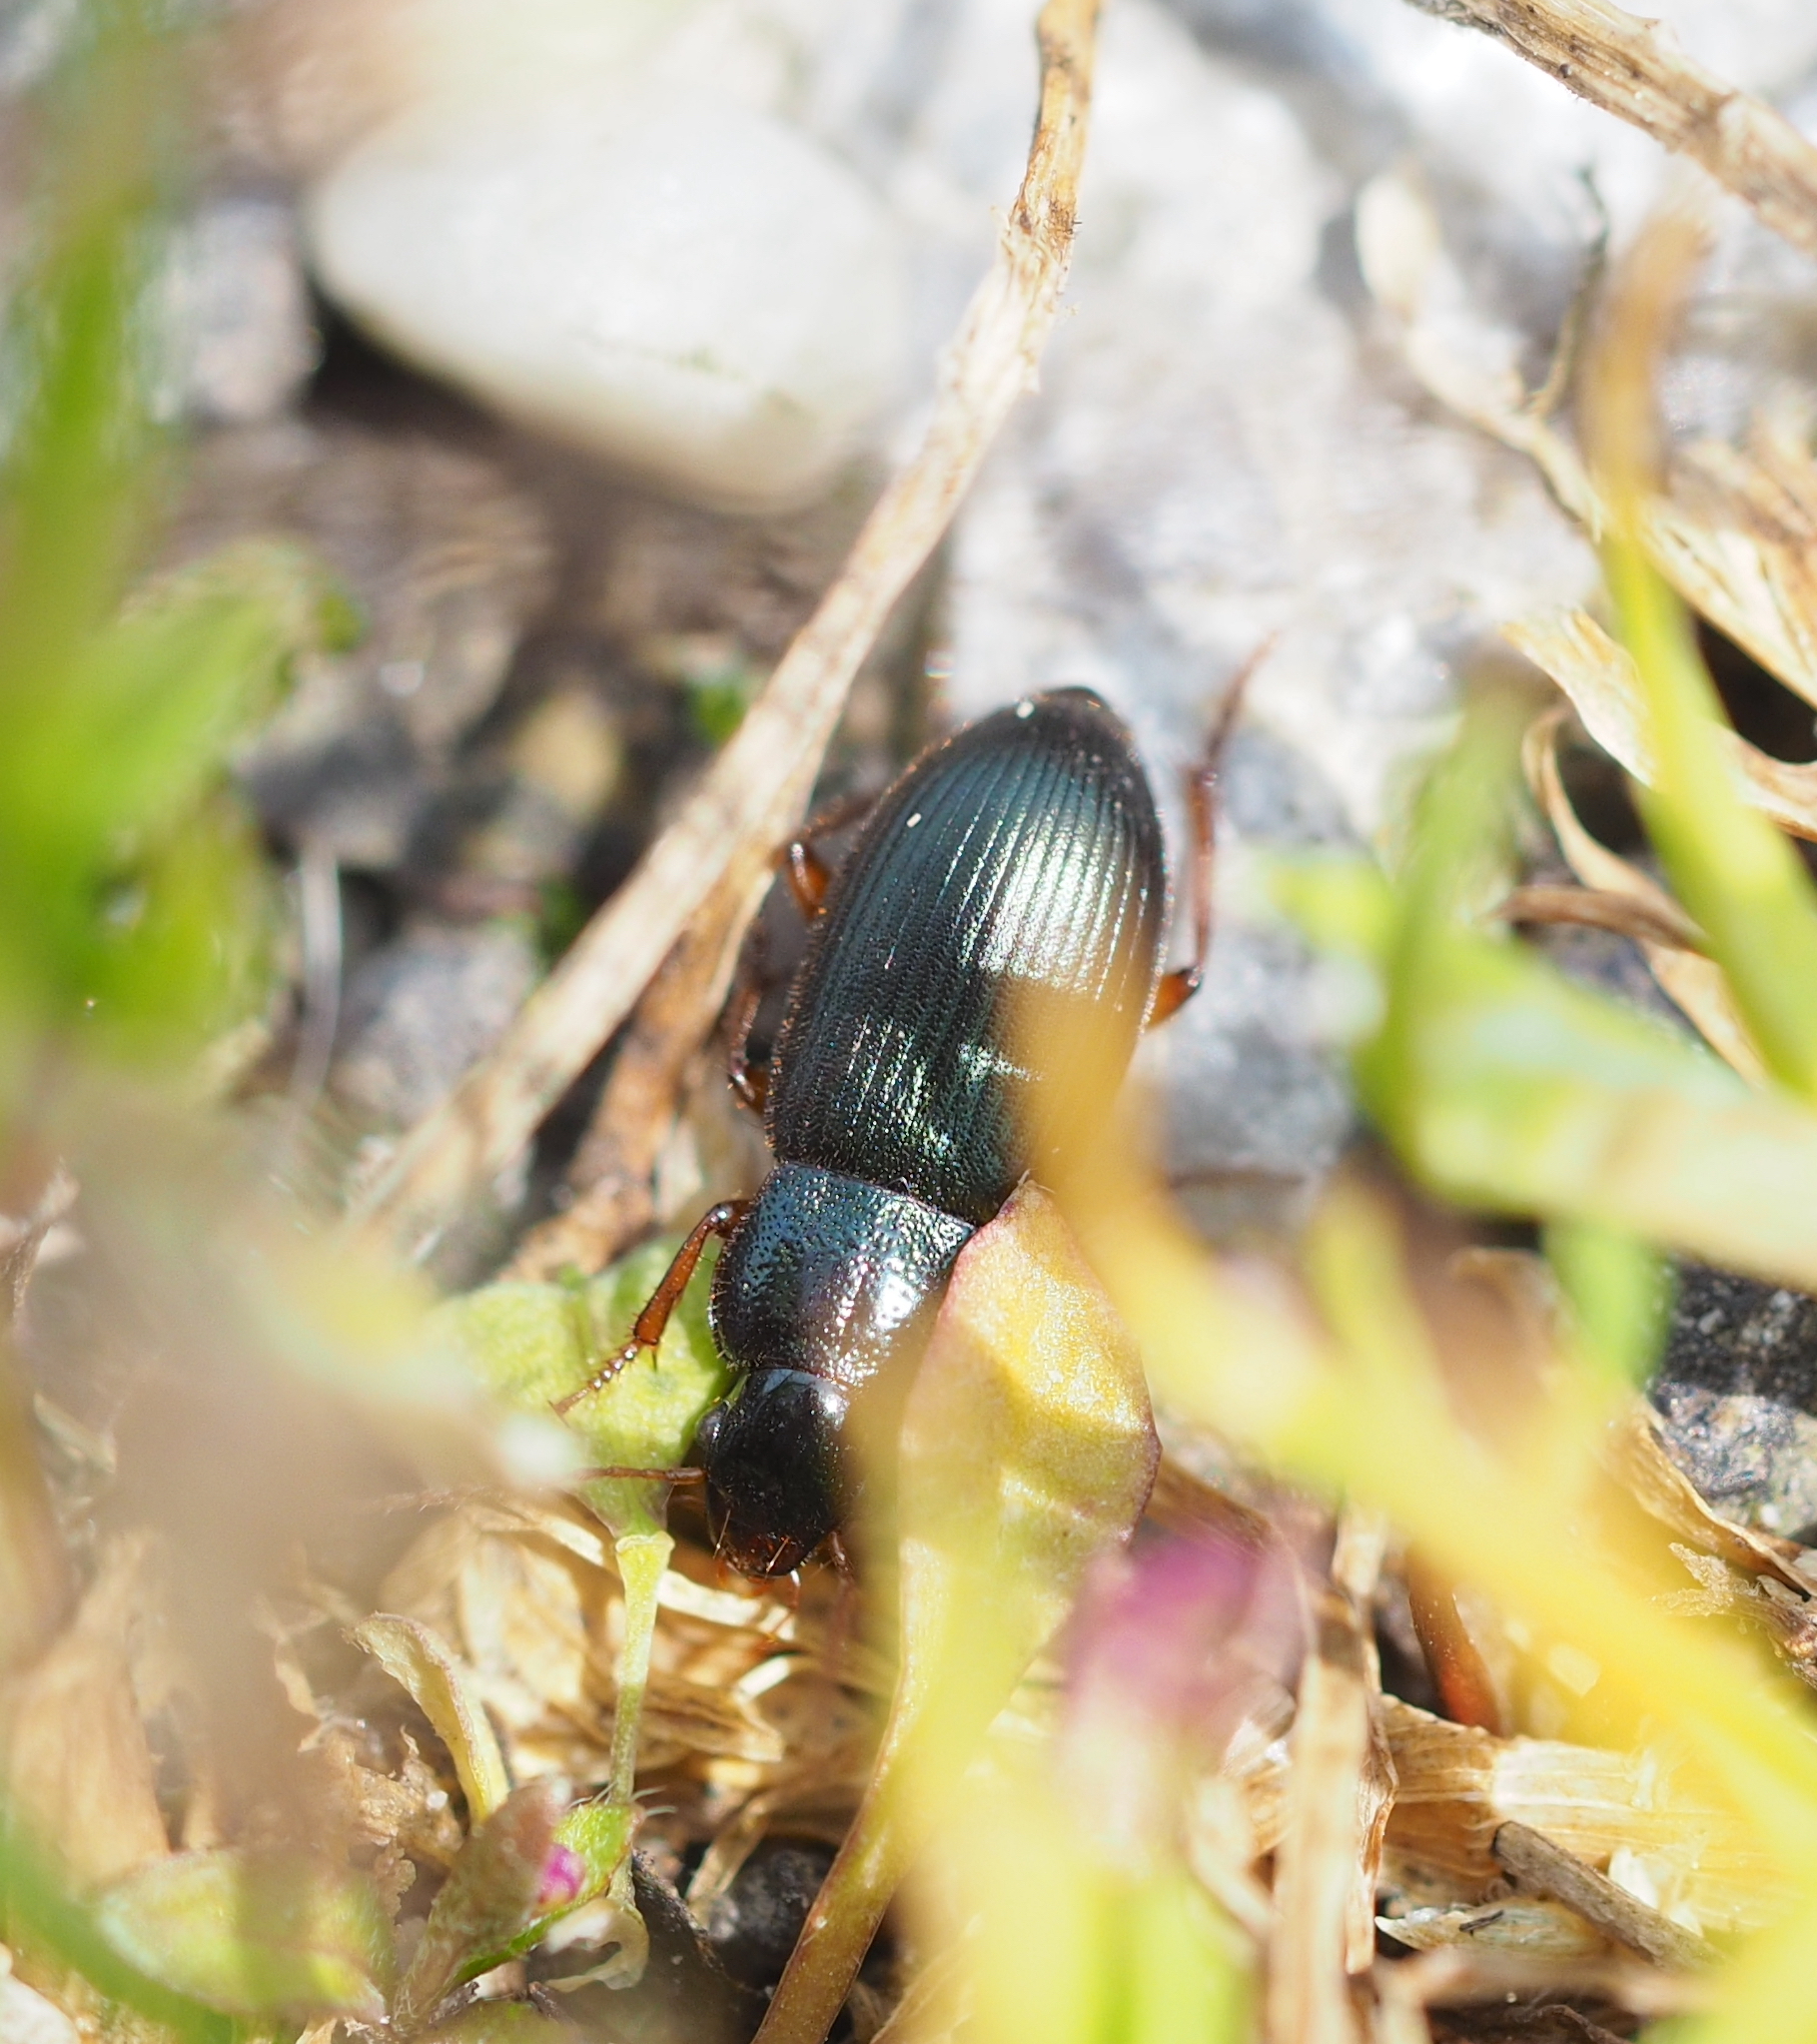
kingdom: Animalia
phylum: Arthropoda
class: Insecta
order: Coleoptera
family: Carabidae
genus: Ophonus
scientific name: Ophonus azureus
